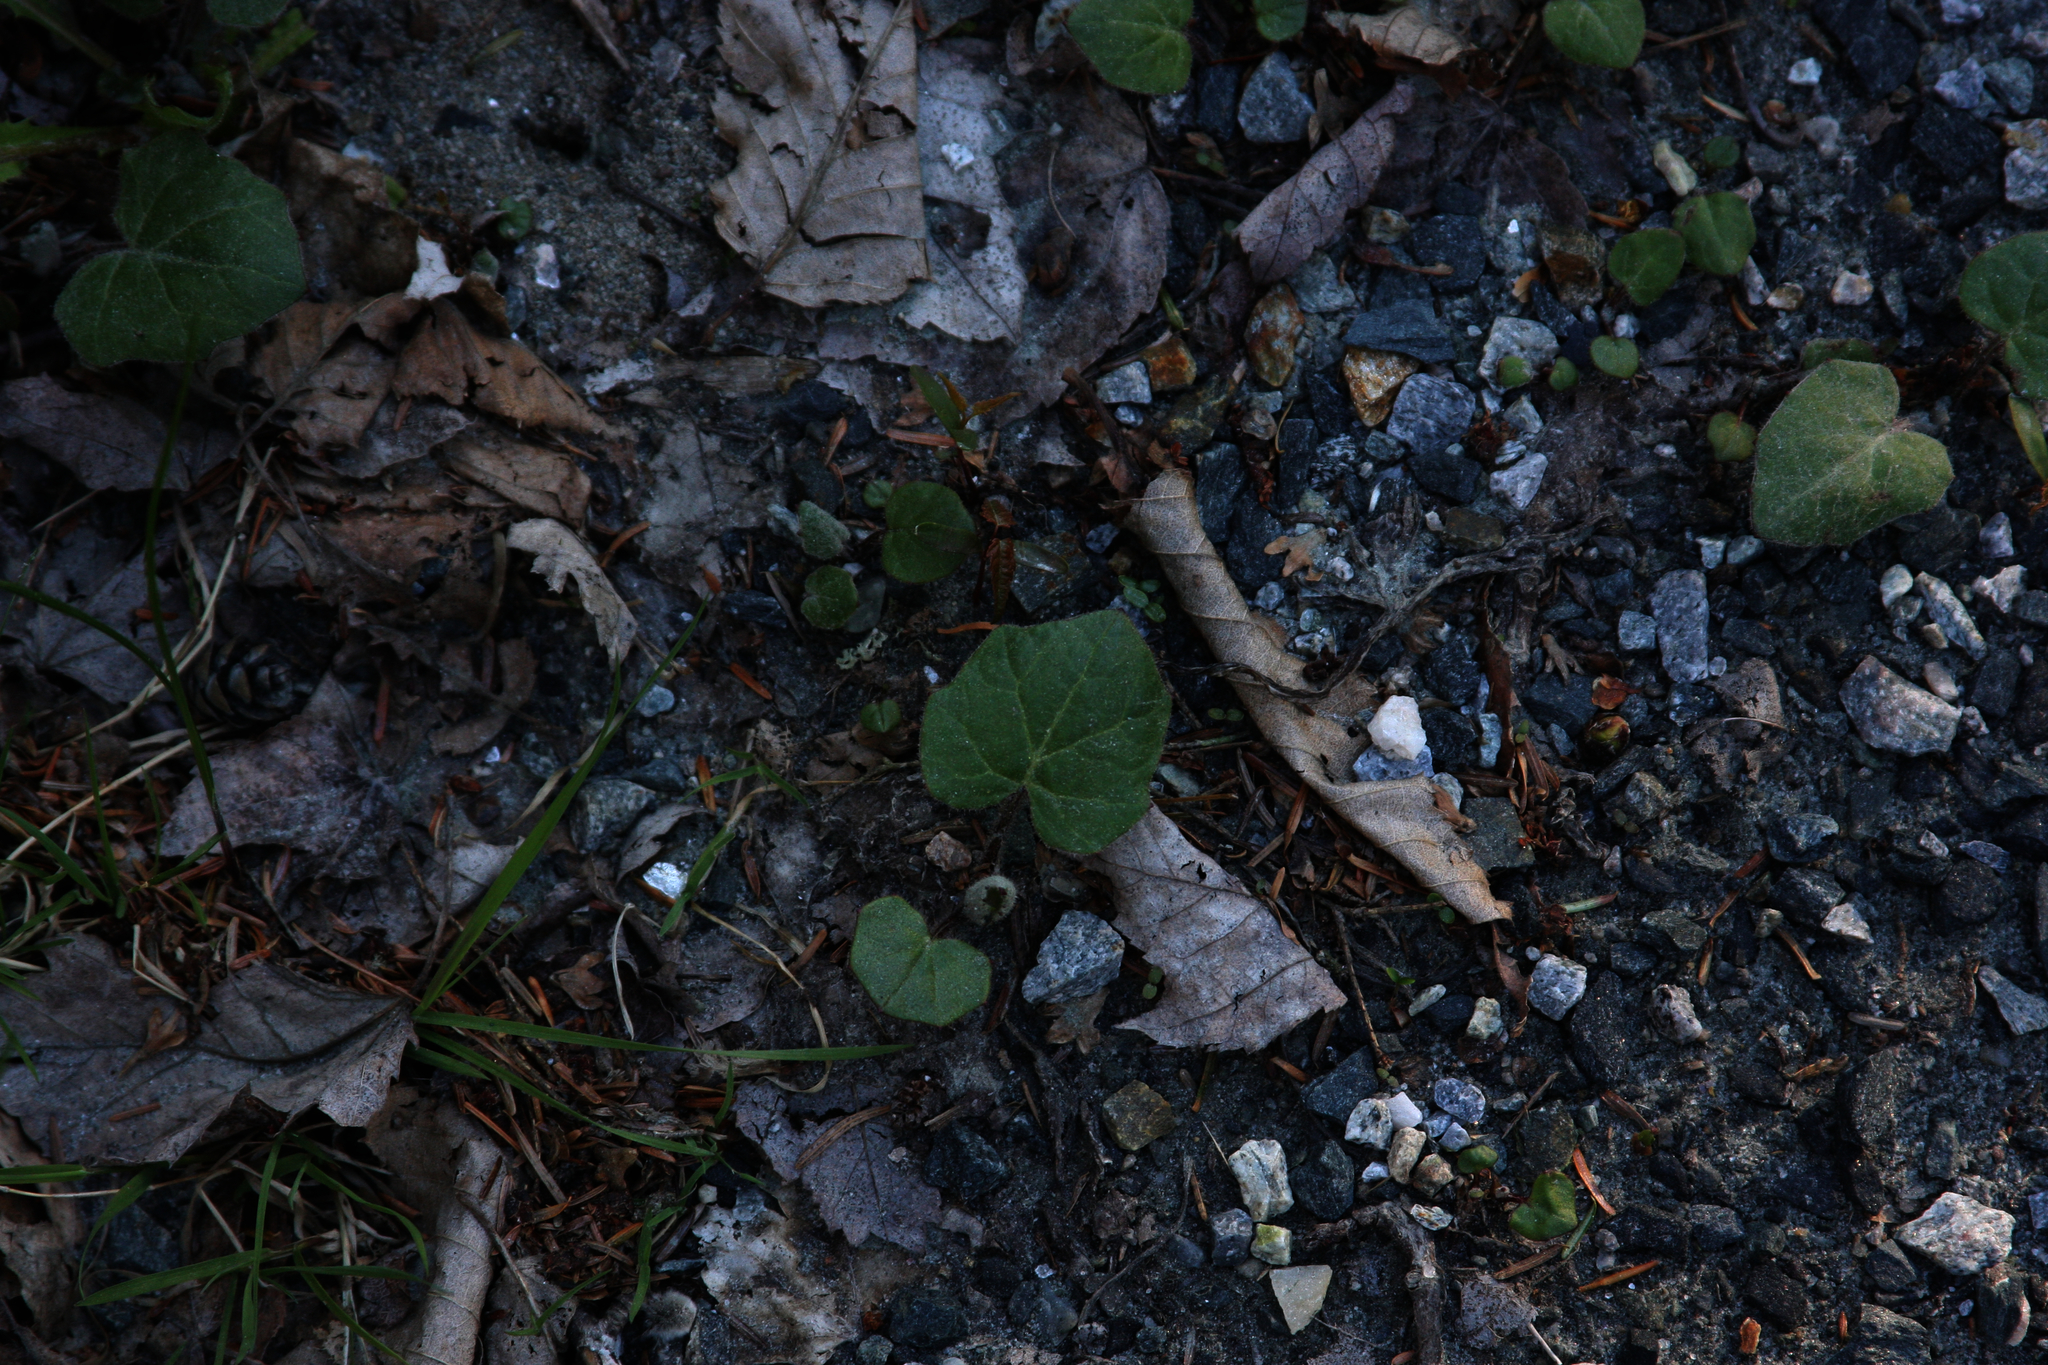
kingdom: Plantae
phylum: Tracheophyta
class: Magnoliopsida
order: Asterales
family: Asteraceae
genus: Tussilago
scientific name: Tussilago farfara
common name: Coltsfoot
